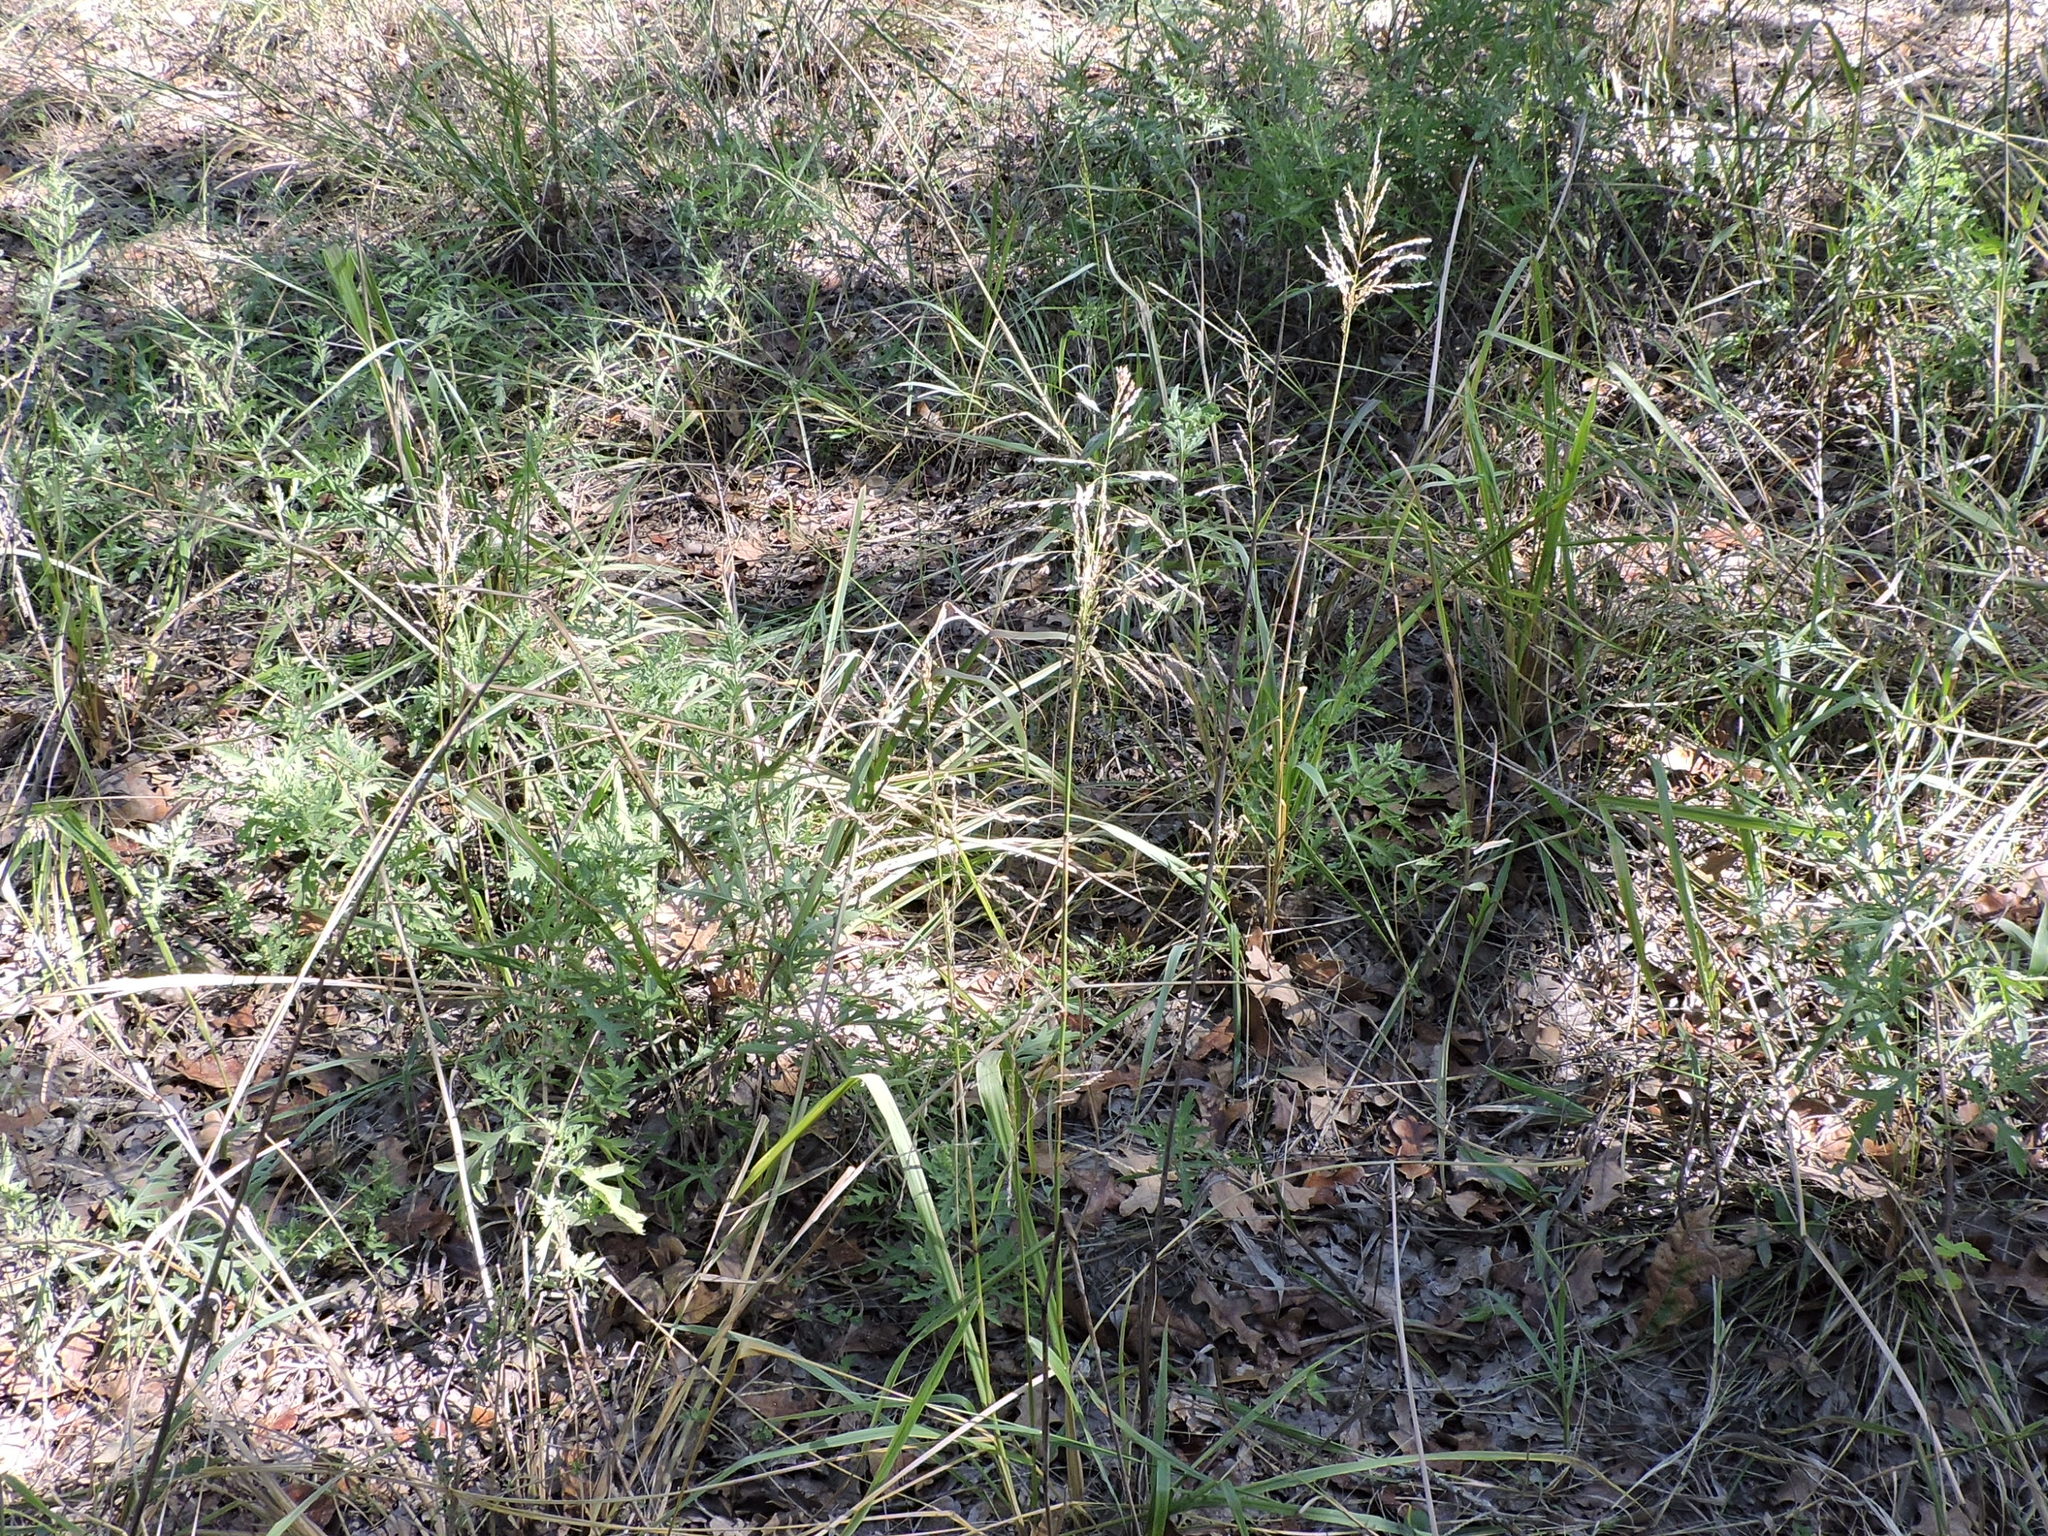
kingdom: Plantae
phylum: Tracheophyta
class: Liliopsida
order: Poales
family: Poaceae
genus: Tridens
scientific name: Tridens flavus
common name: Purpletop
